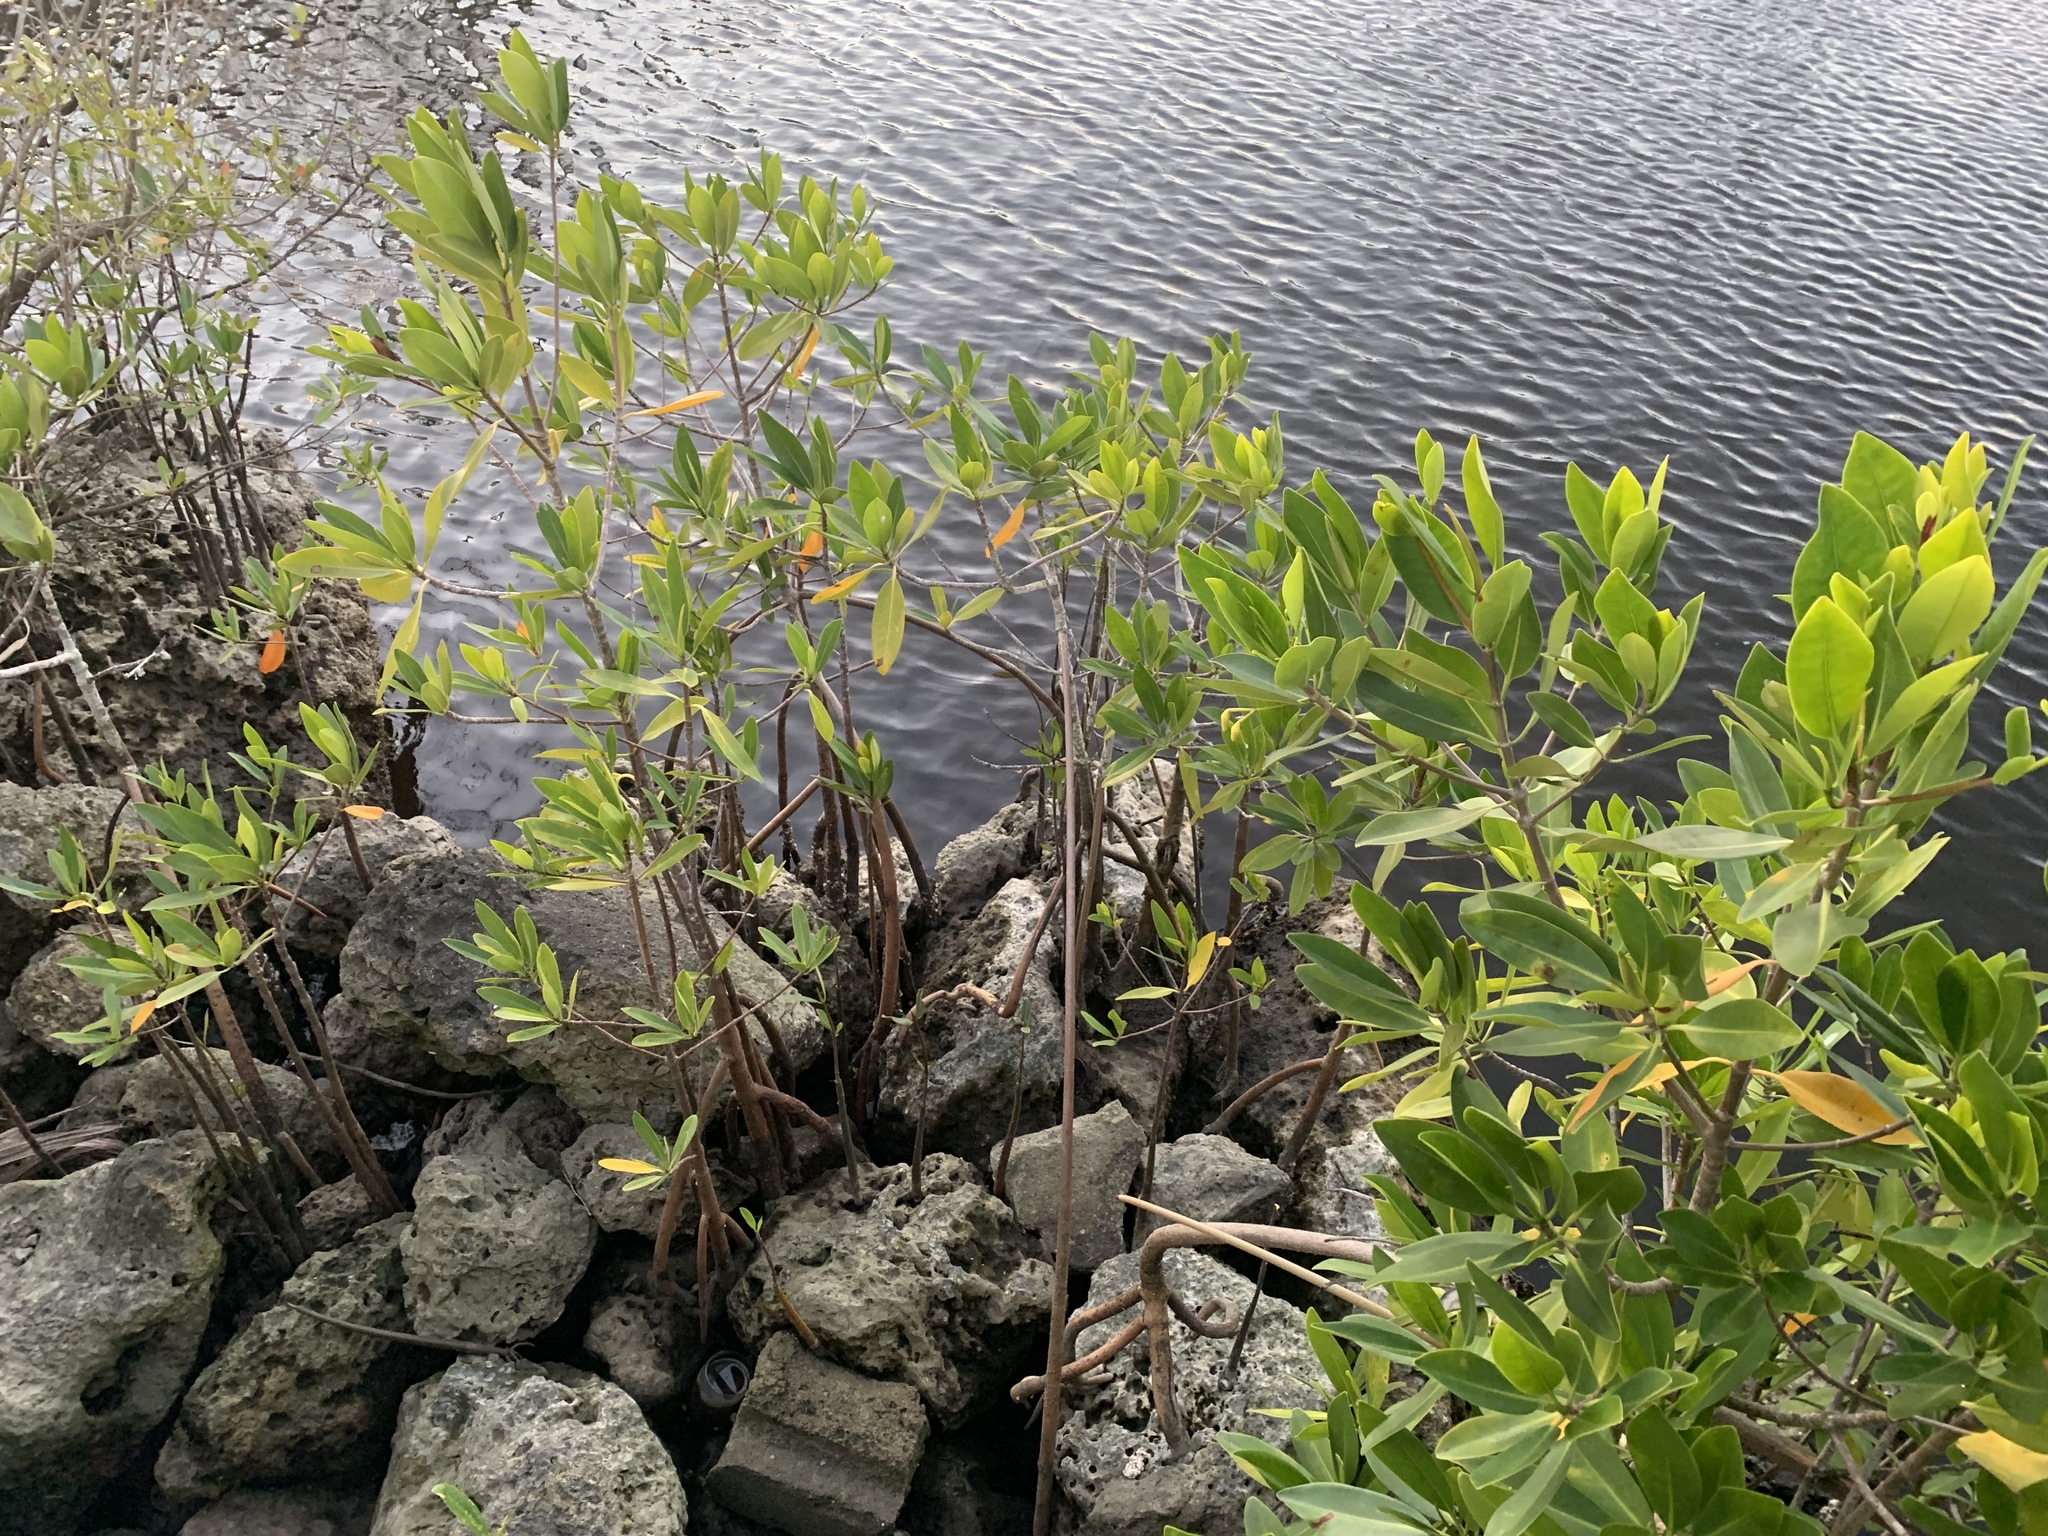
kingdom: Plantae
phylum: Tracheophyta
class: Magnoliopsida
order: Malpighiales
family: Rhizophoraceae
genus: Rhizophora
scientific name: Rhizophora mangle
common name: Red mangrove
